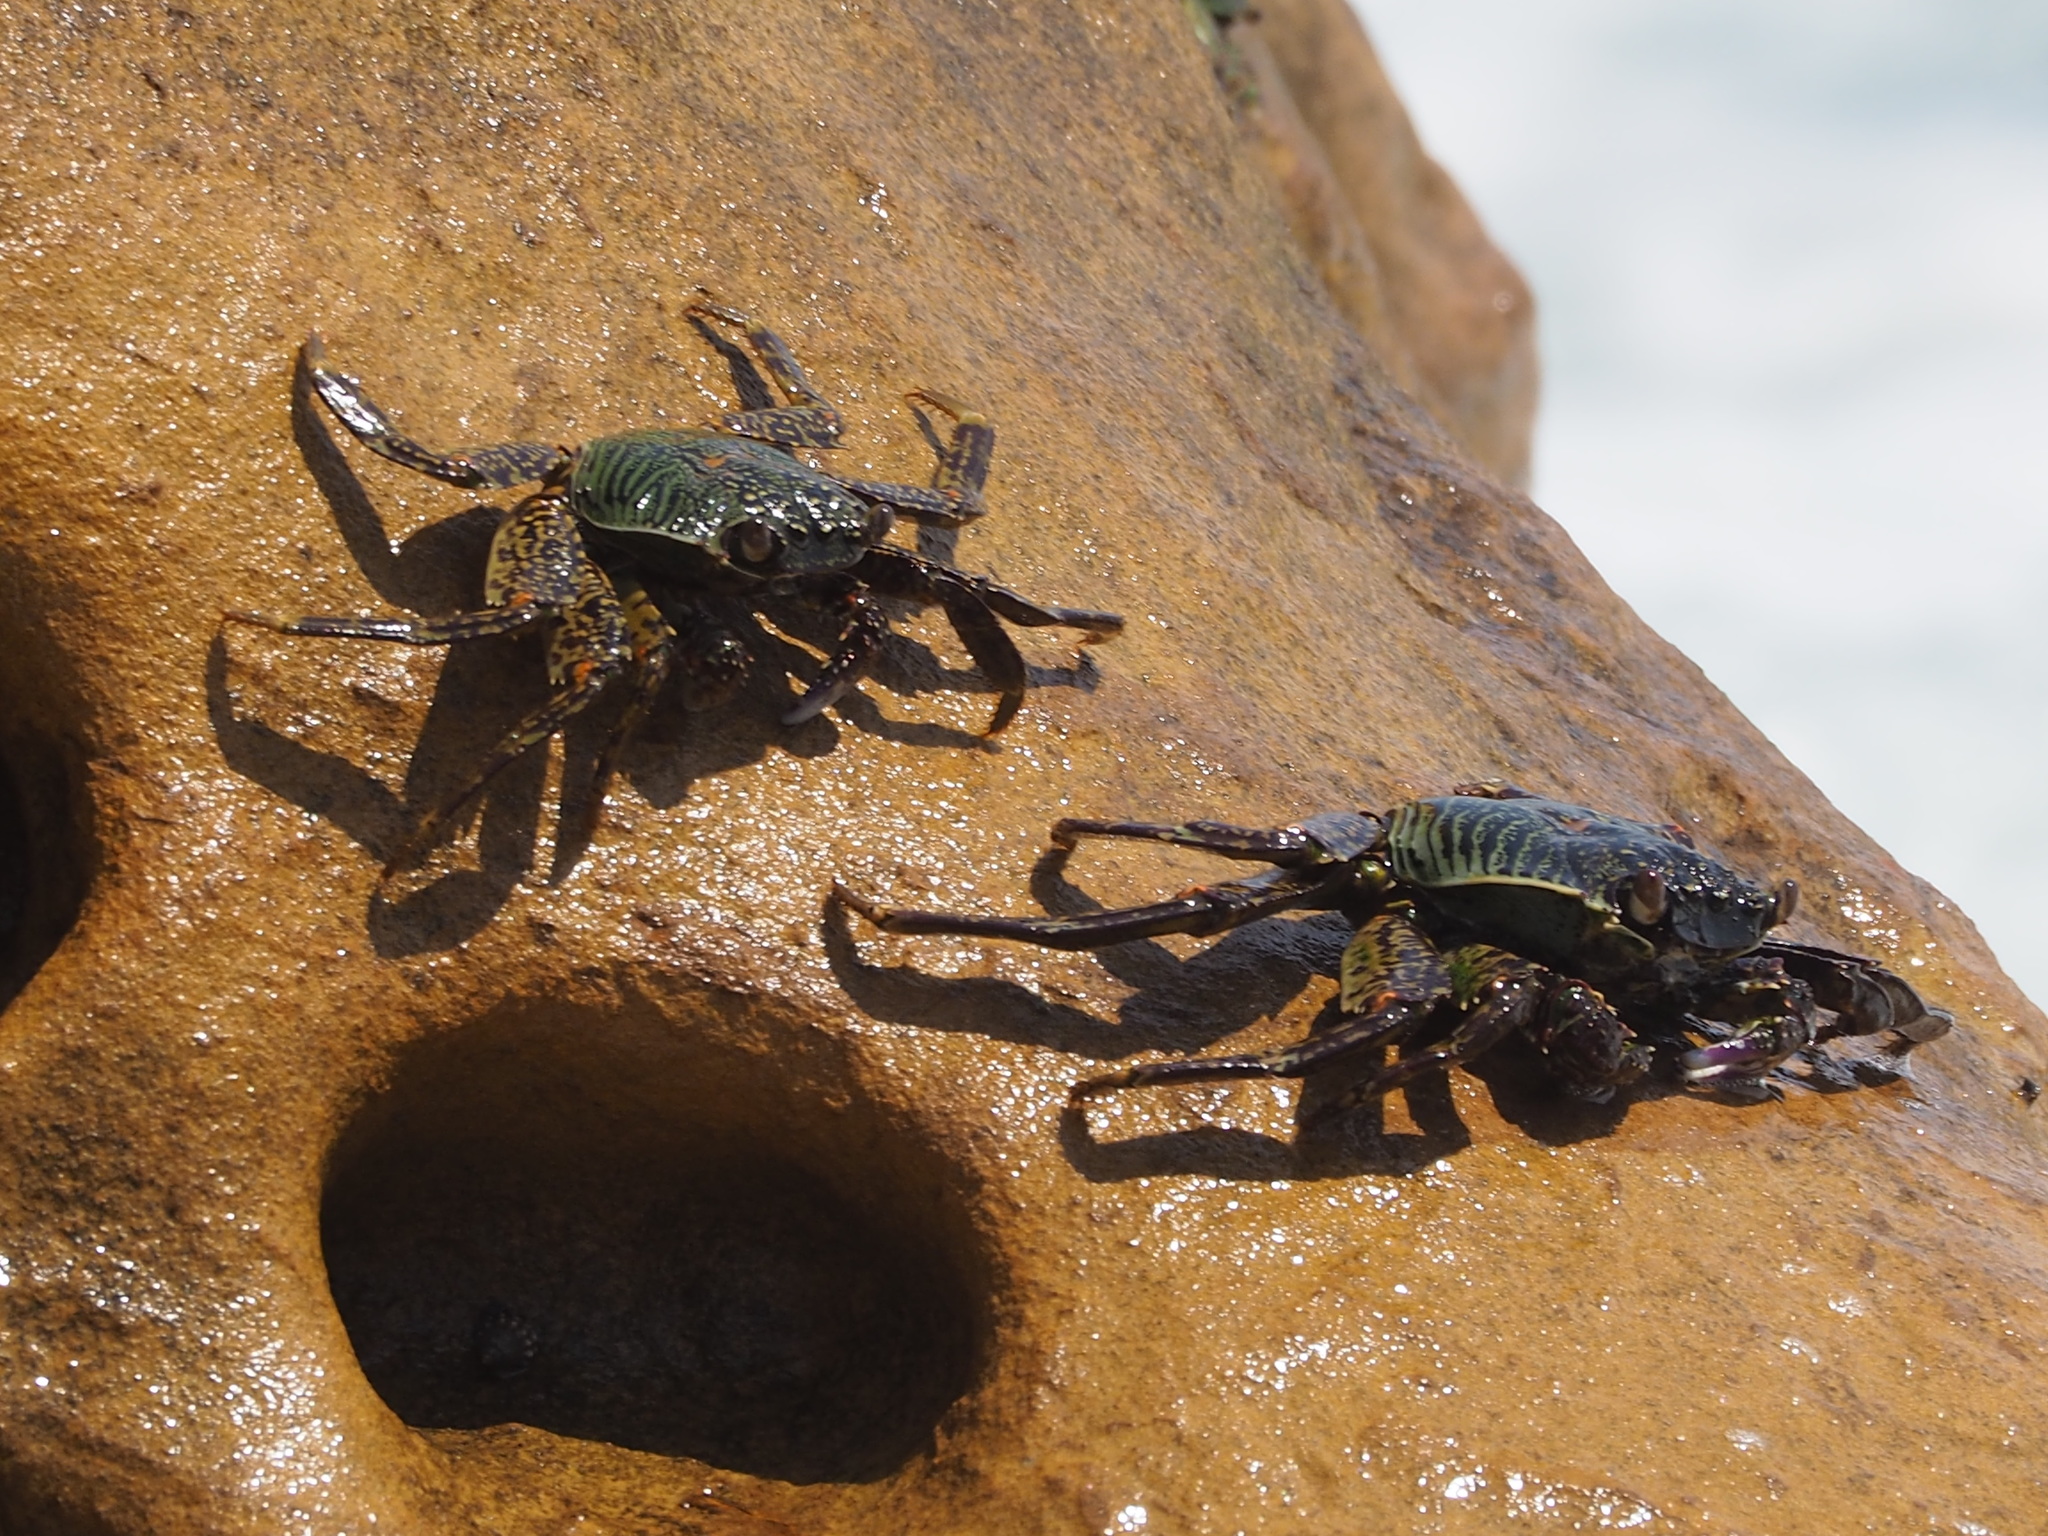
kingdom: Animalia
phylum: Arthropoda
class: Malacostraca
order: Decapoda
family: Grapsidae
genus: Grapsus
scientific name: Grapsus albolineatus
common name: Mottled lightfoot crab
